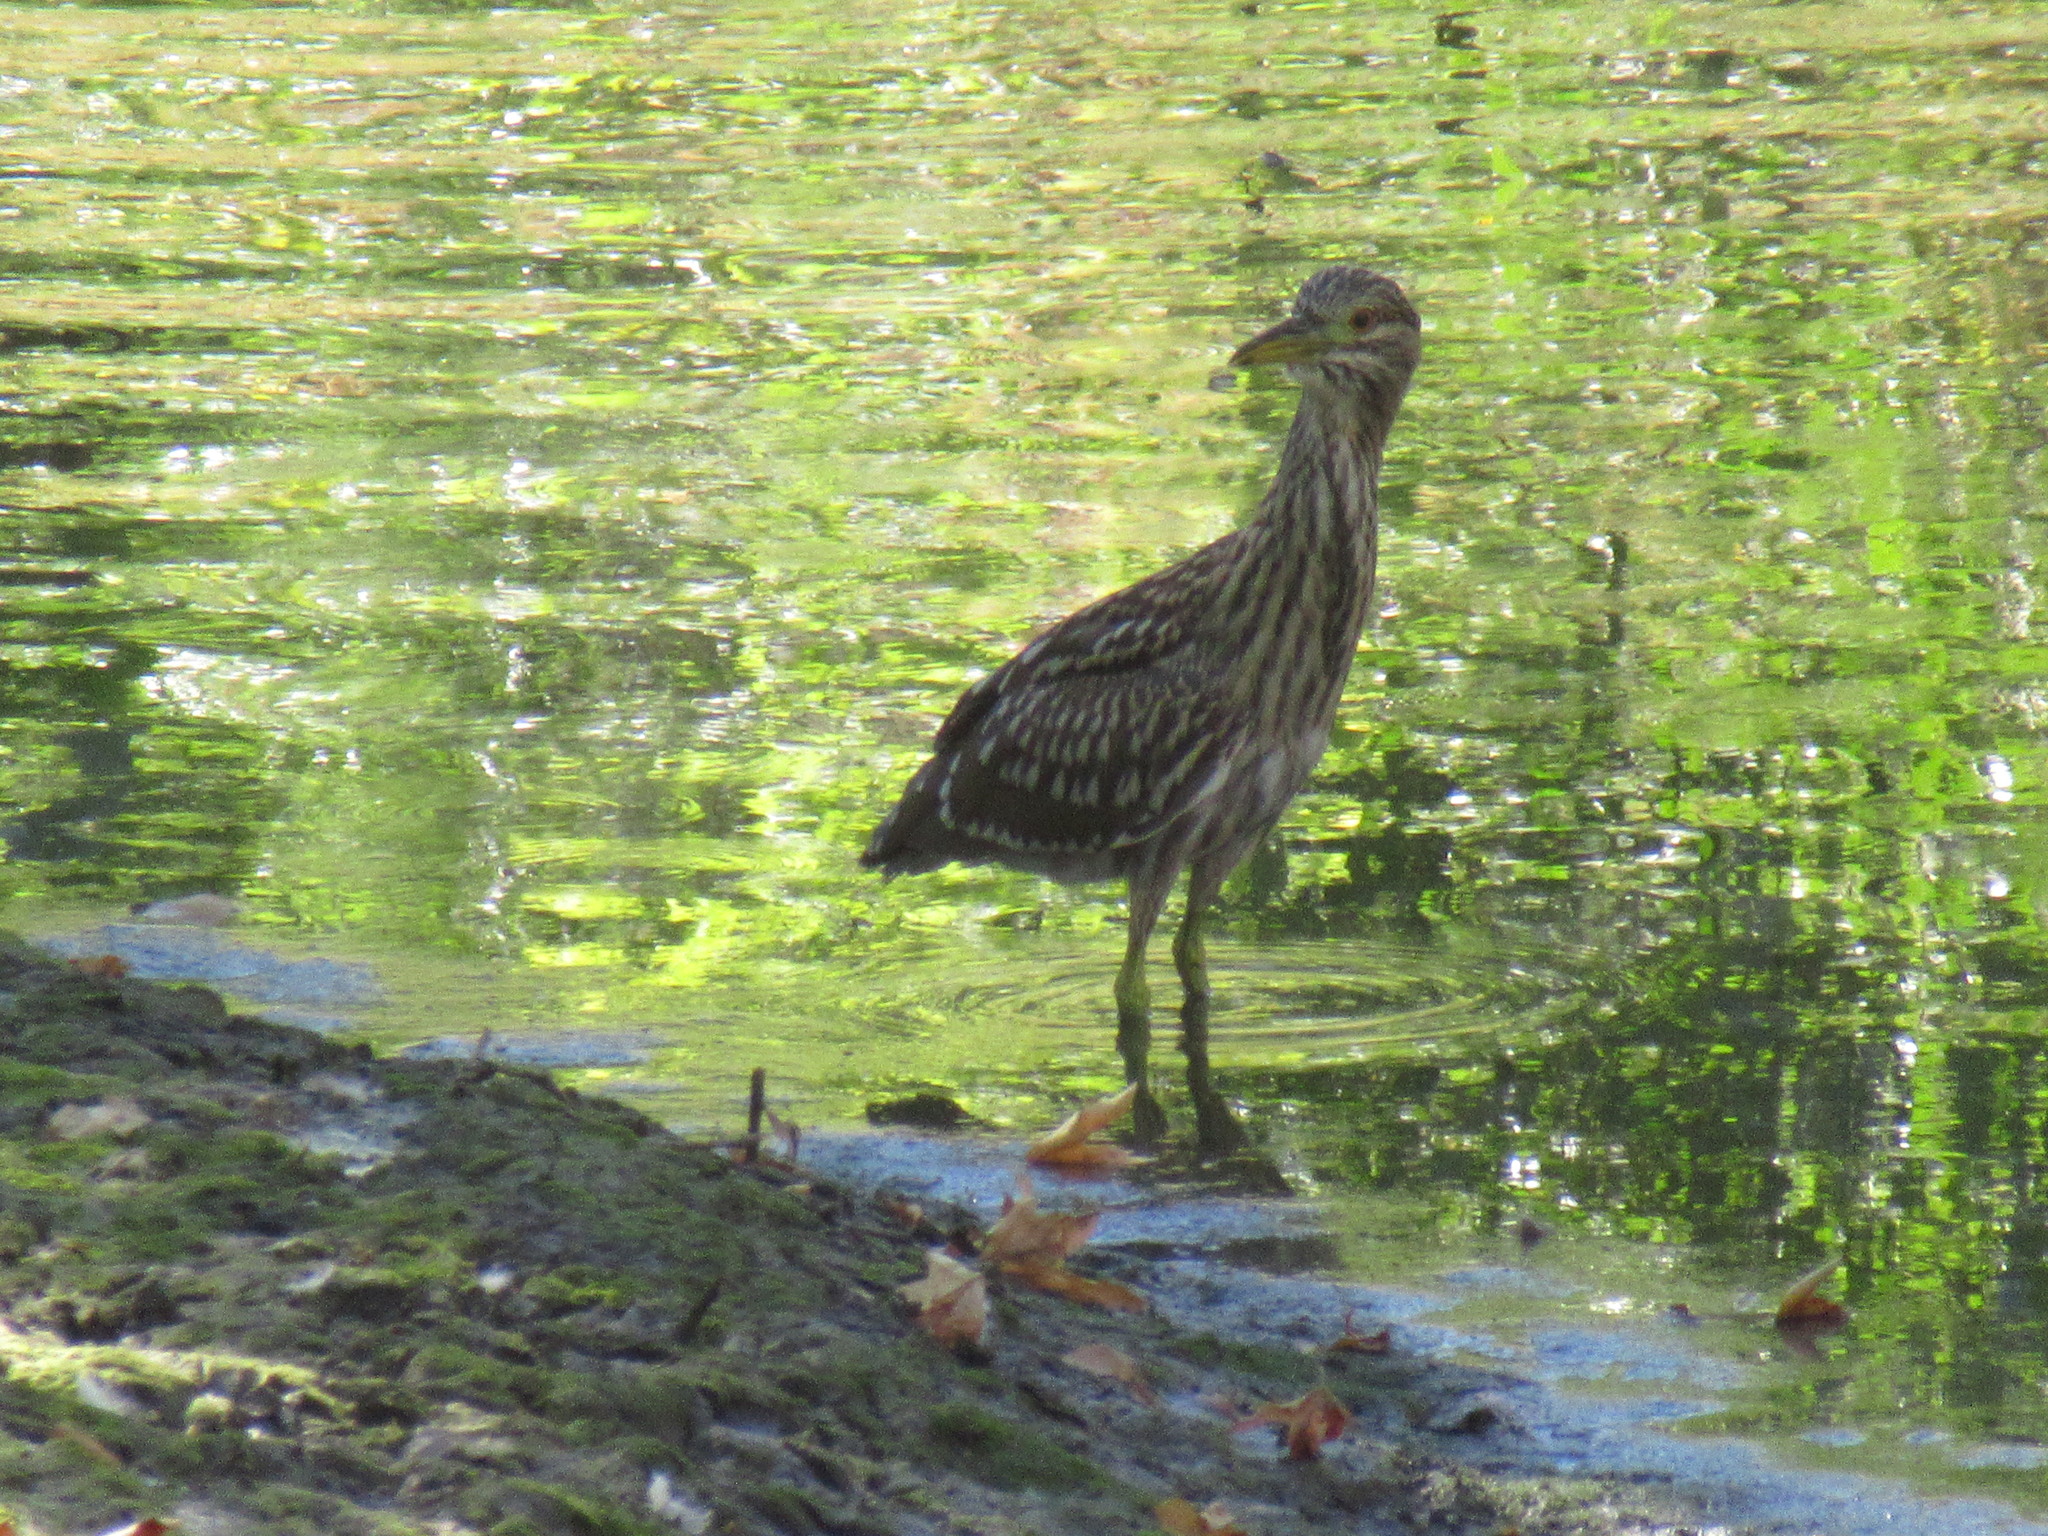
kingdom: Animalia
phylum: Chordata
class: Aves
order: Pelecaniformes
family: Ardeidae
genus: Nycticorax
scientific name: Nycticorax nycticorax
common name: Black-crowned night heron
